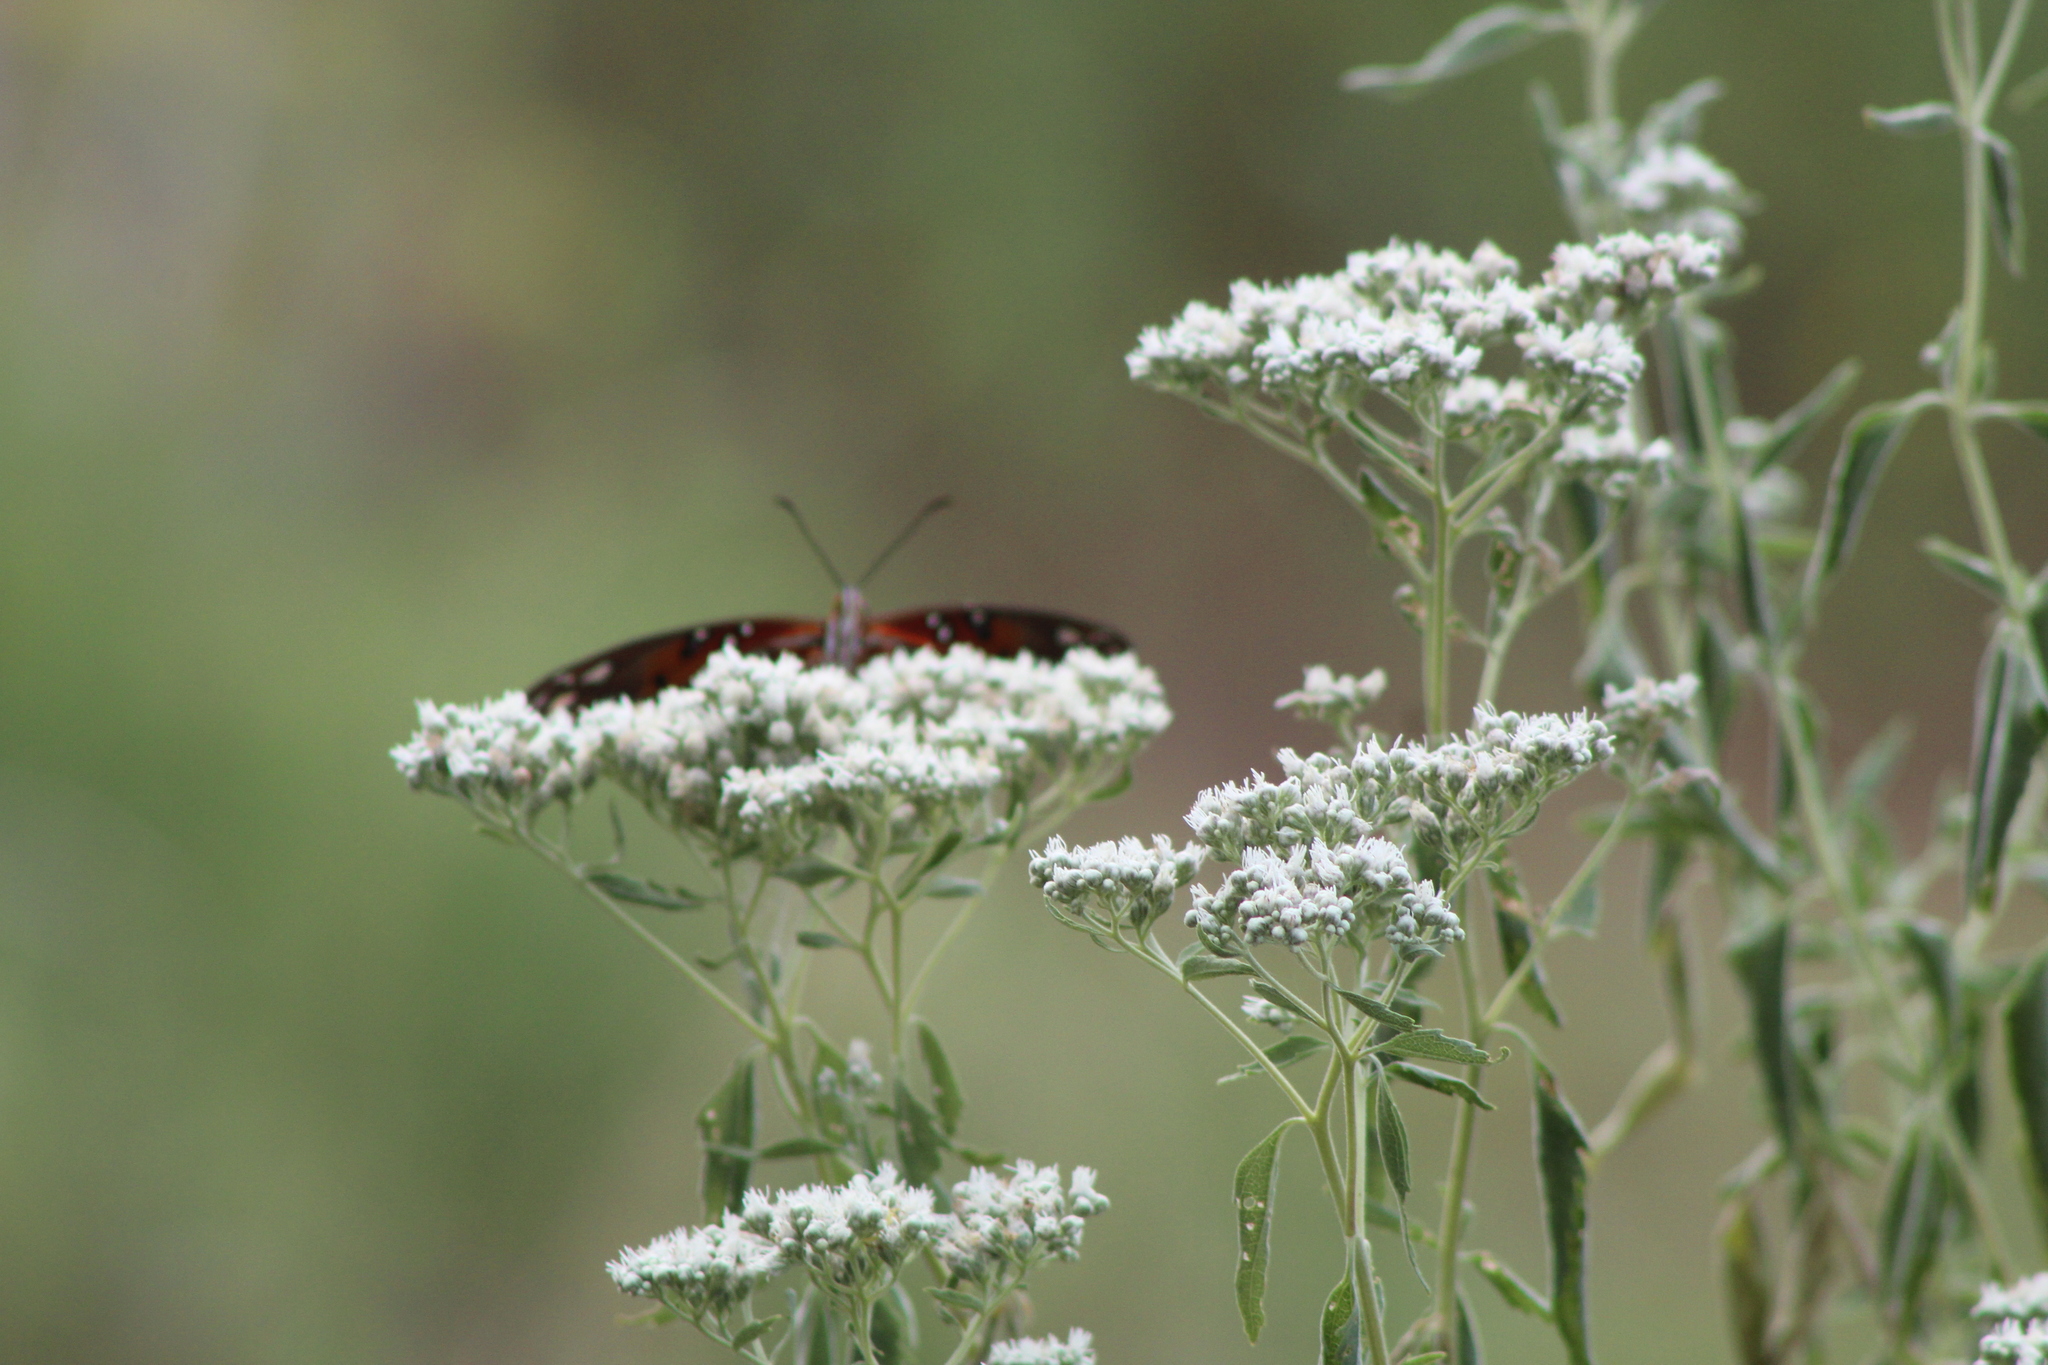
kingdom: Animalia
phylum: Arthropoda
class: Insecta
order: Lepidoptera
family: Nymphalidae
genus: Dione
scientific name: Dione vanillae
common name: Gulf fritillary
